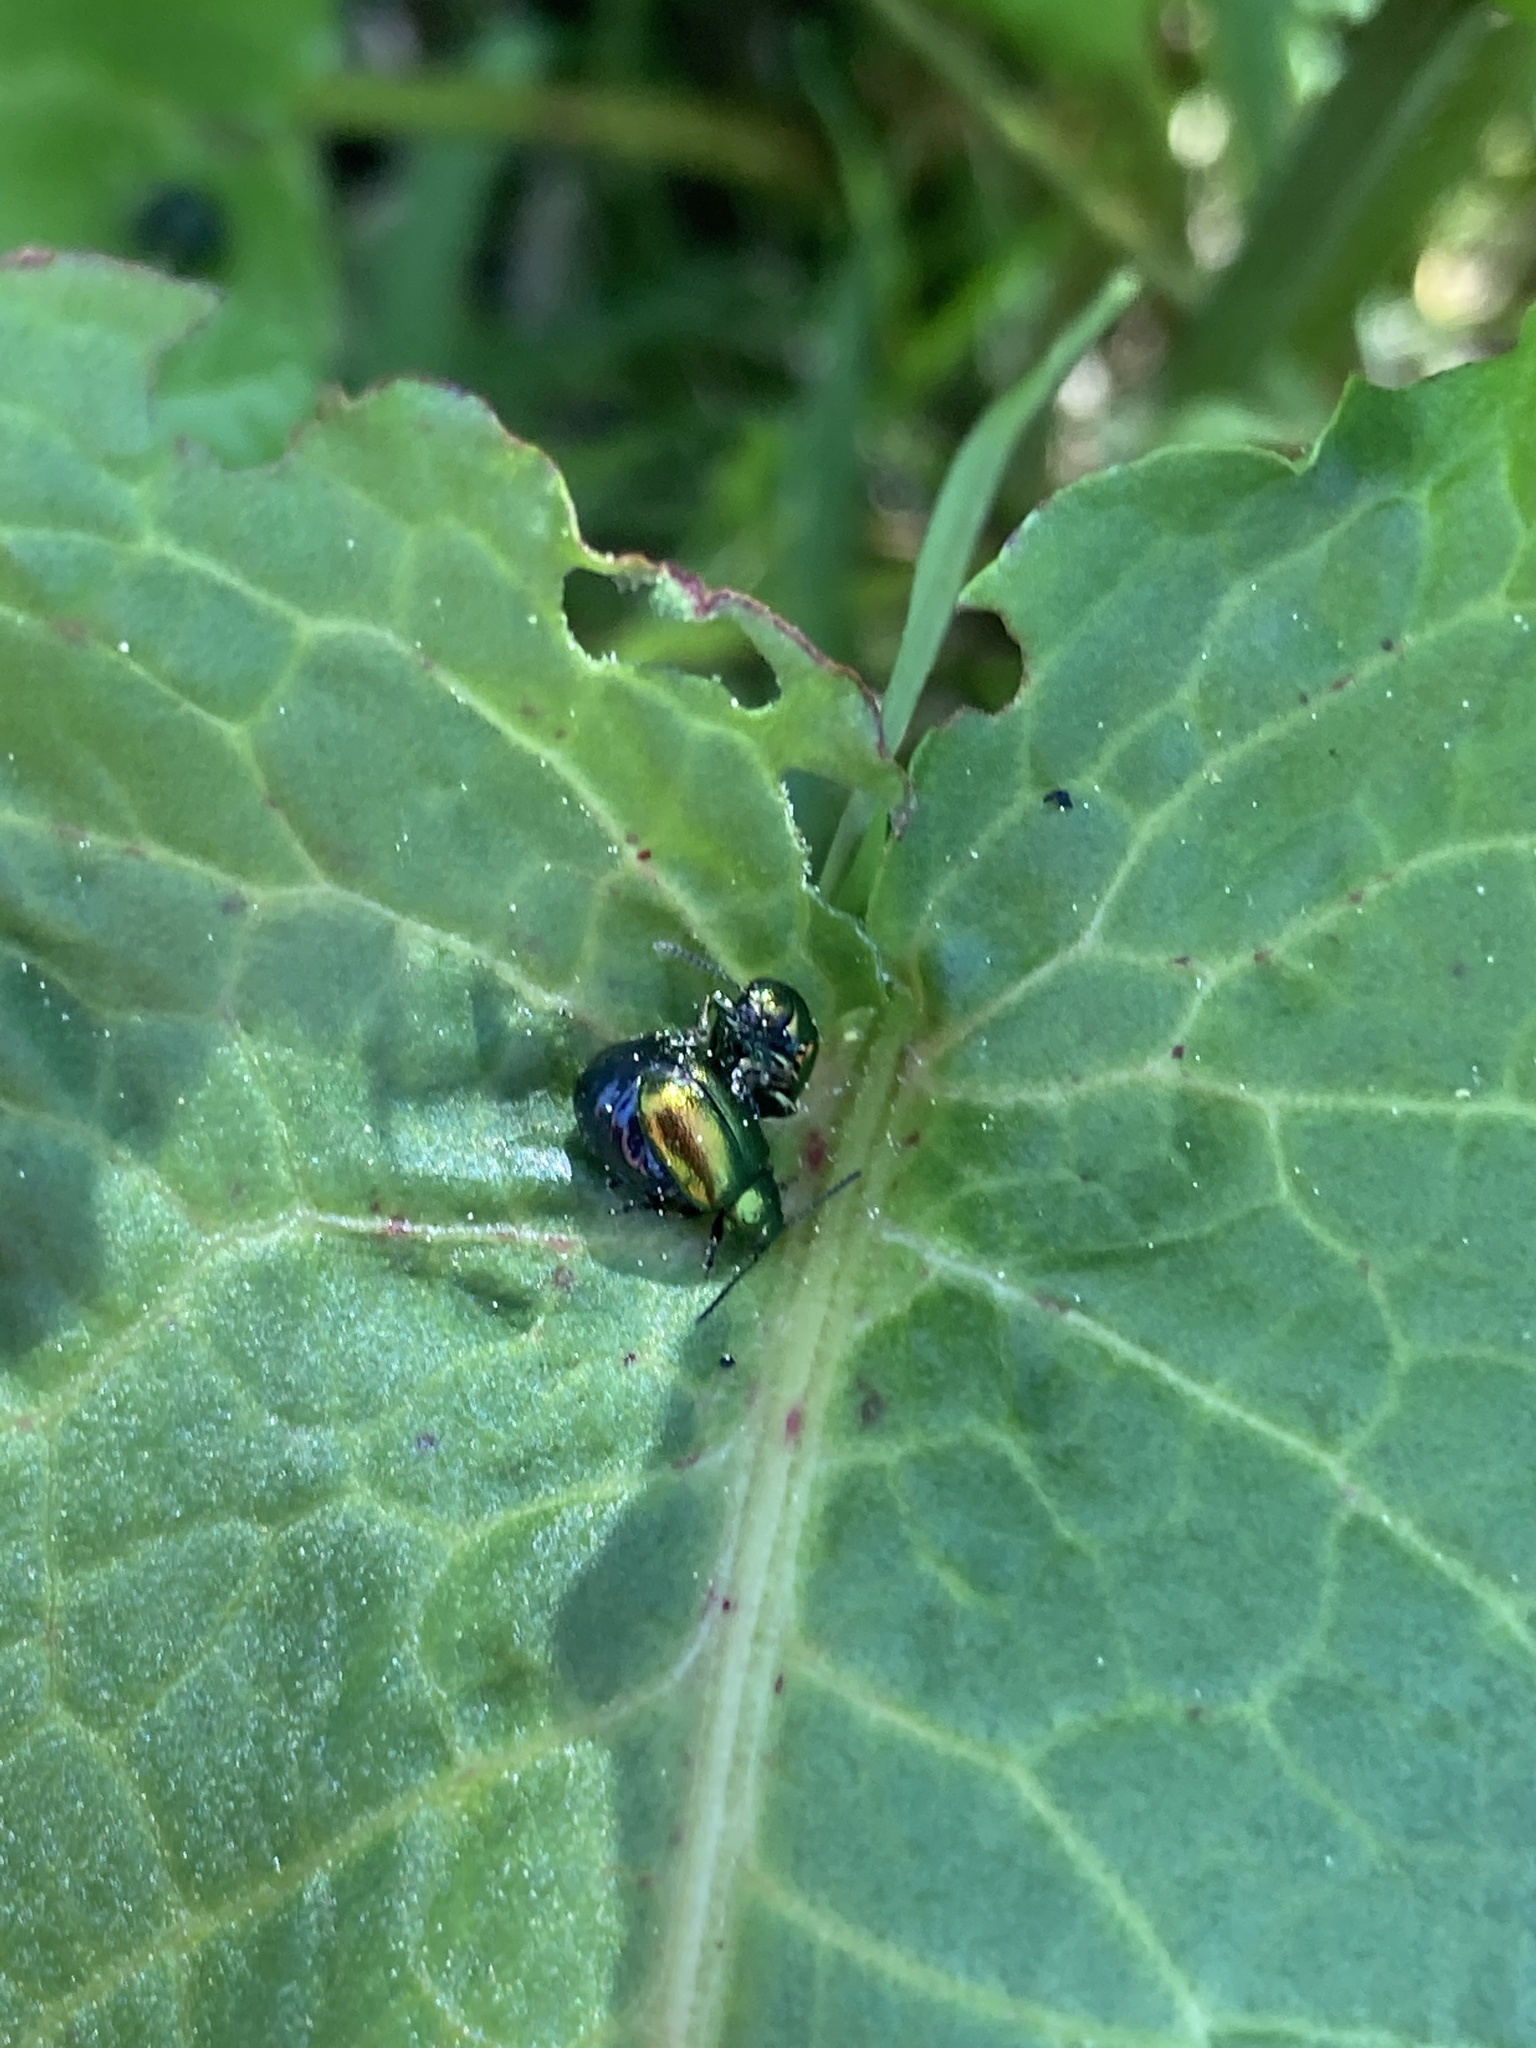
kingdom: Animalia
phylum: Arthropoda
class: Insecta
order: Coleoptera
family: Chrysomelidae
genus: Gastrophysa
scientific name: Gastrophysa viridula
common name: Green dock beetle
